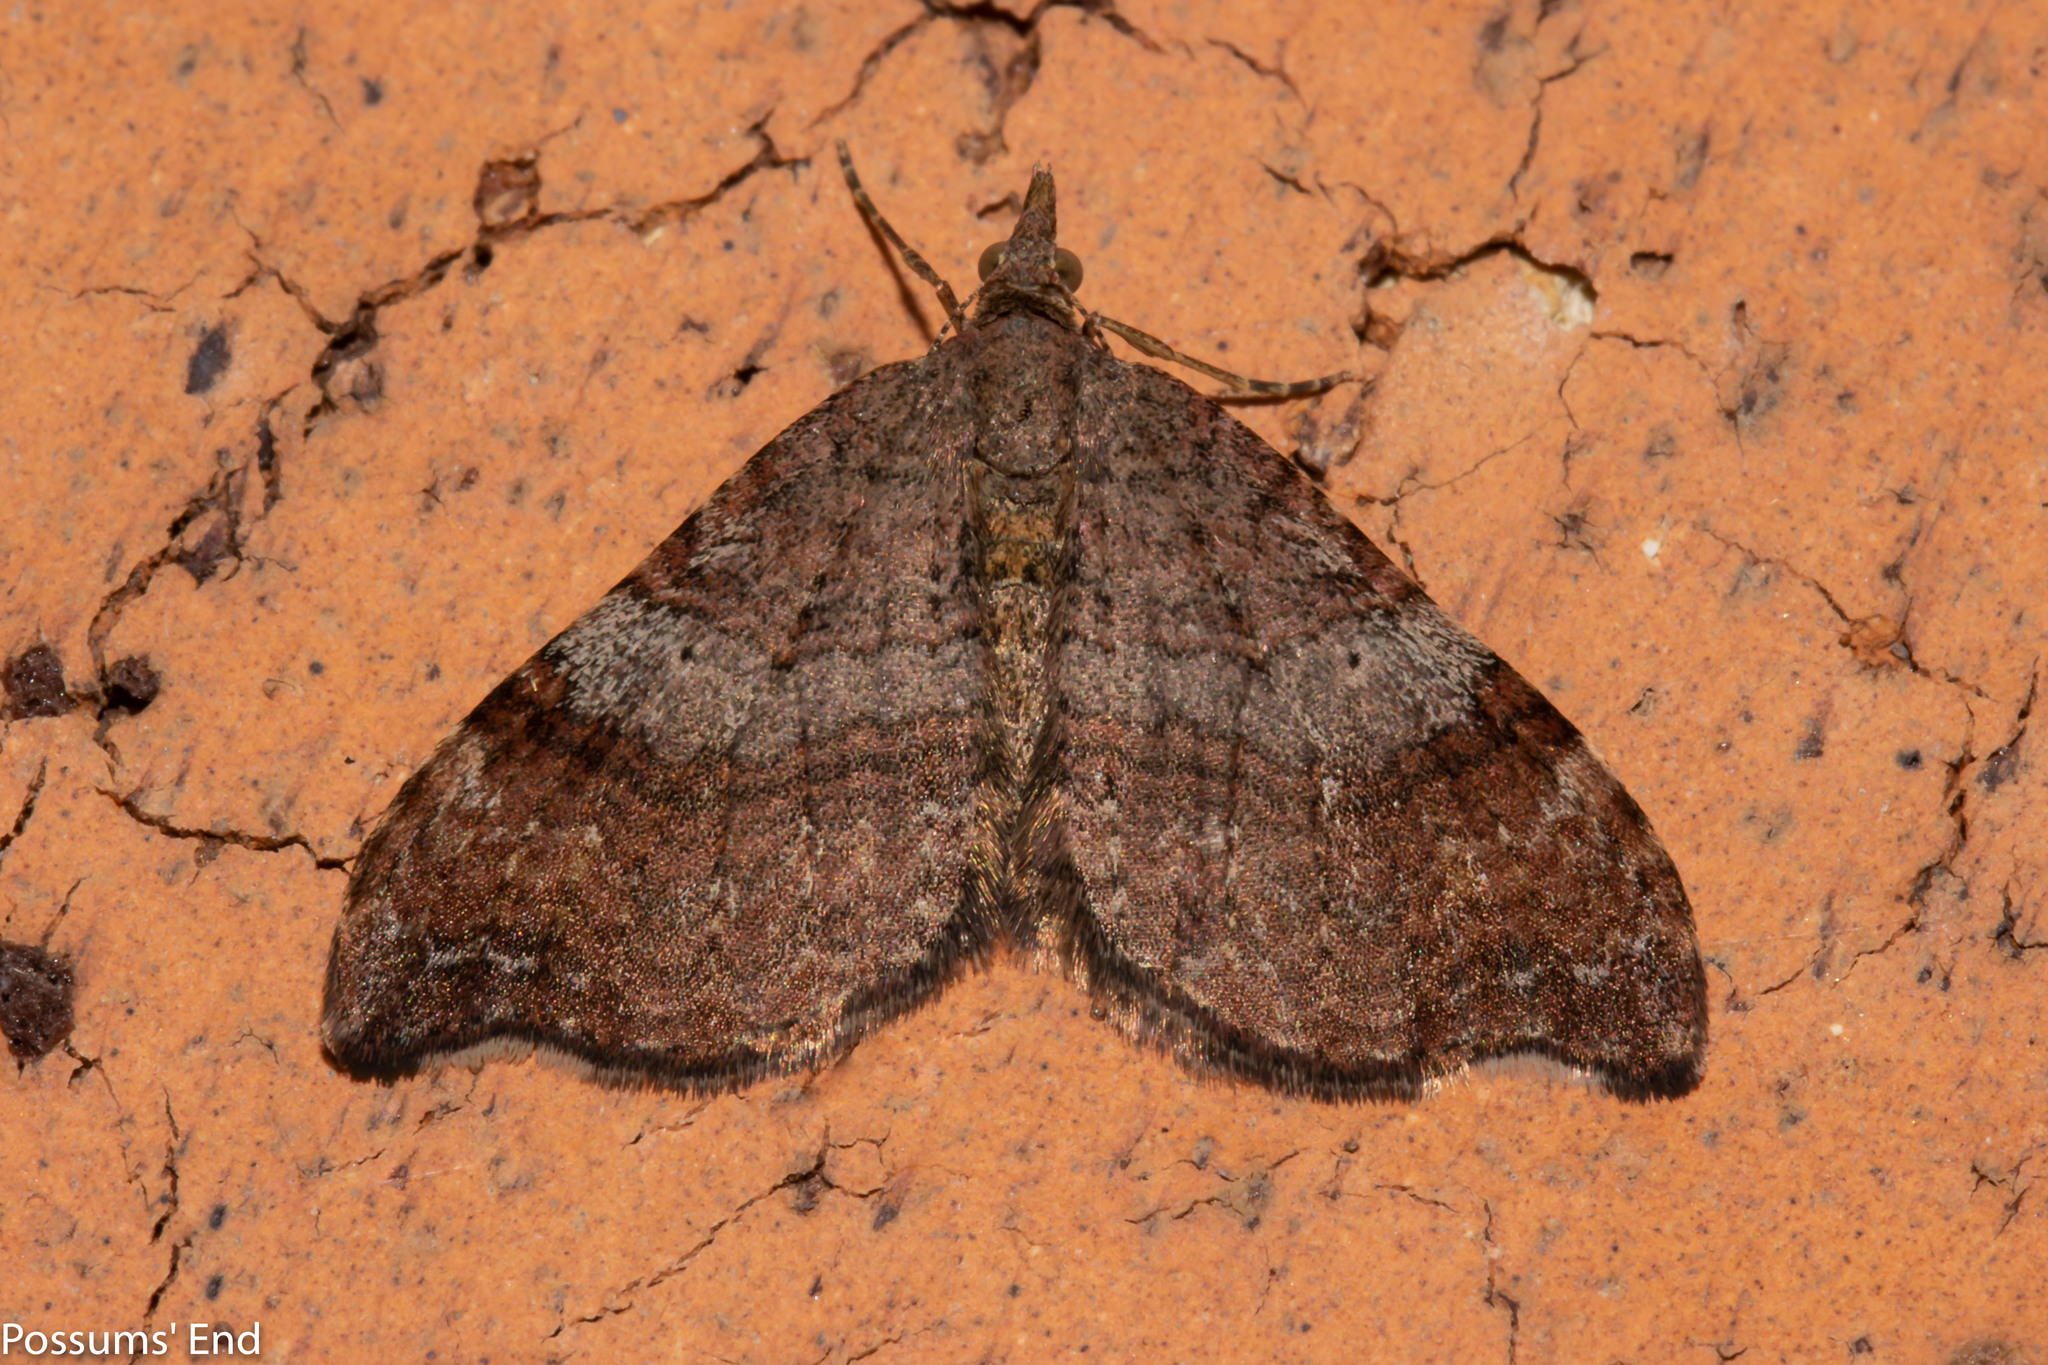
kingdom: Animalia
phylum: Arthropoda
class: Insecta
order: Lepidoptera
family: Geometridae
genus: Homodotis
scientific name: Homodotis megaspilata
